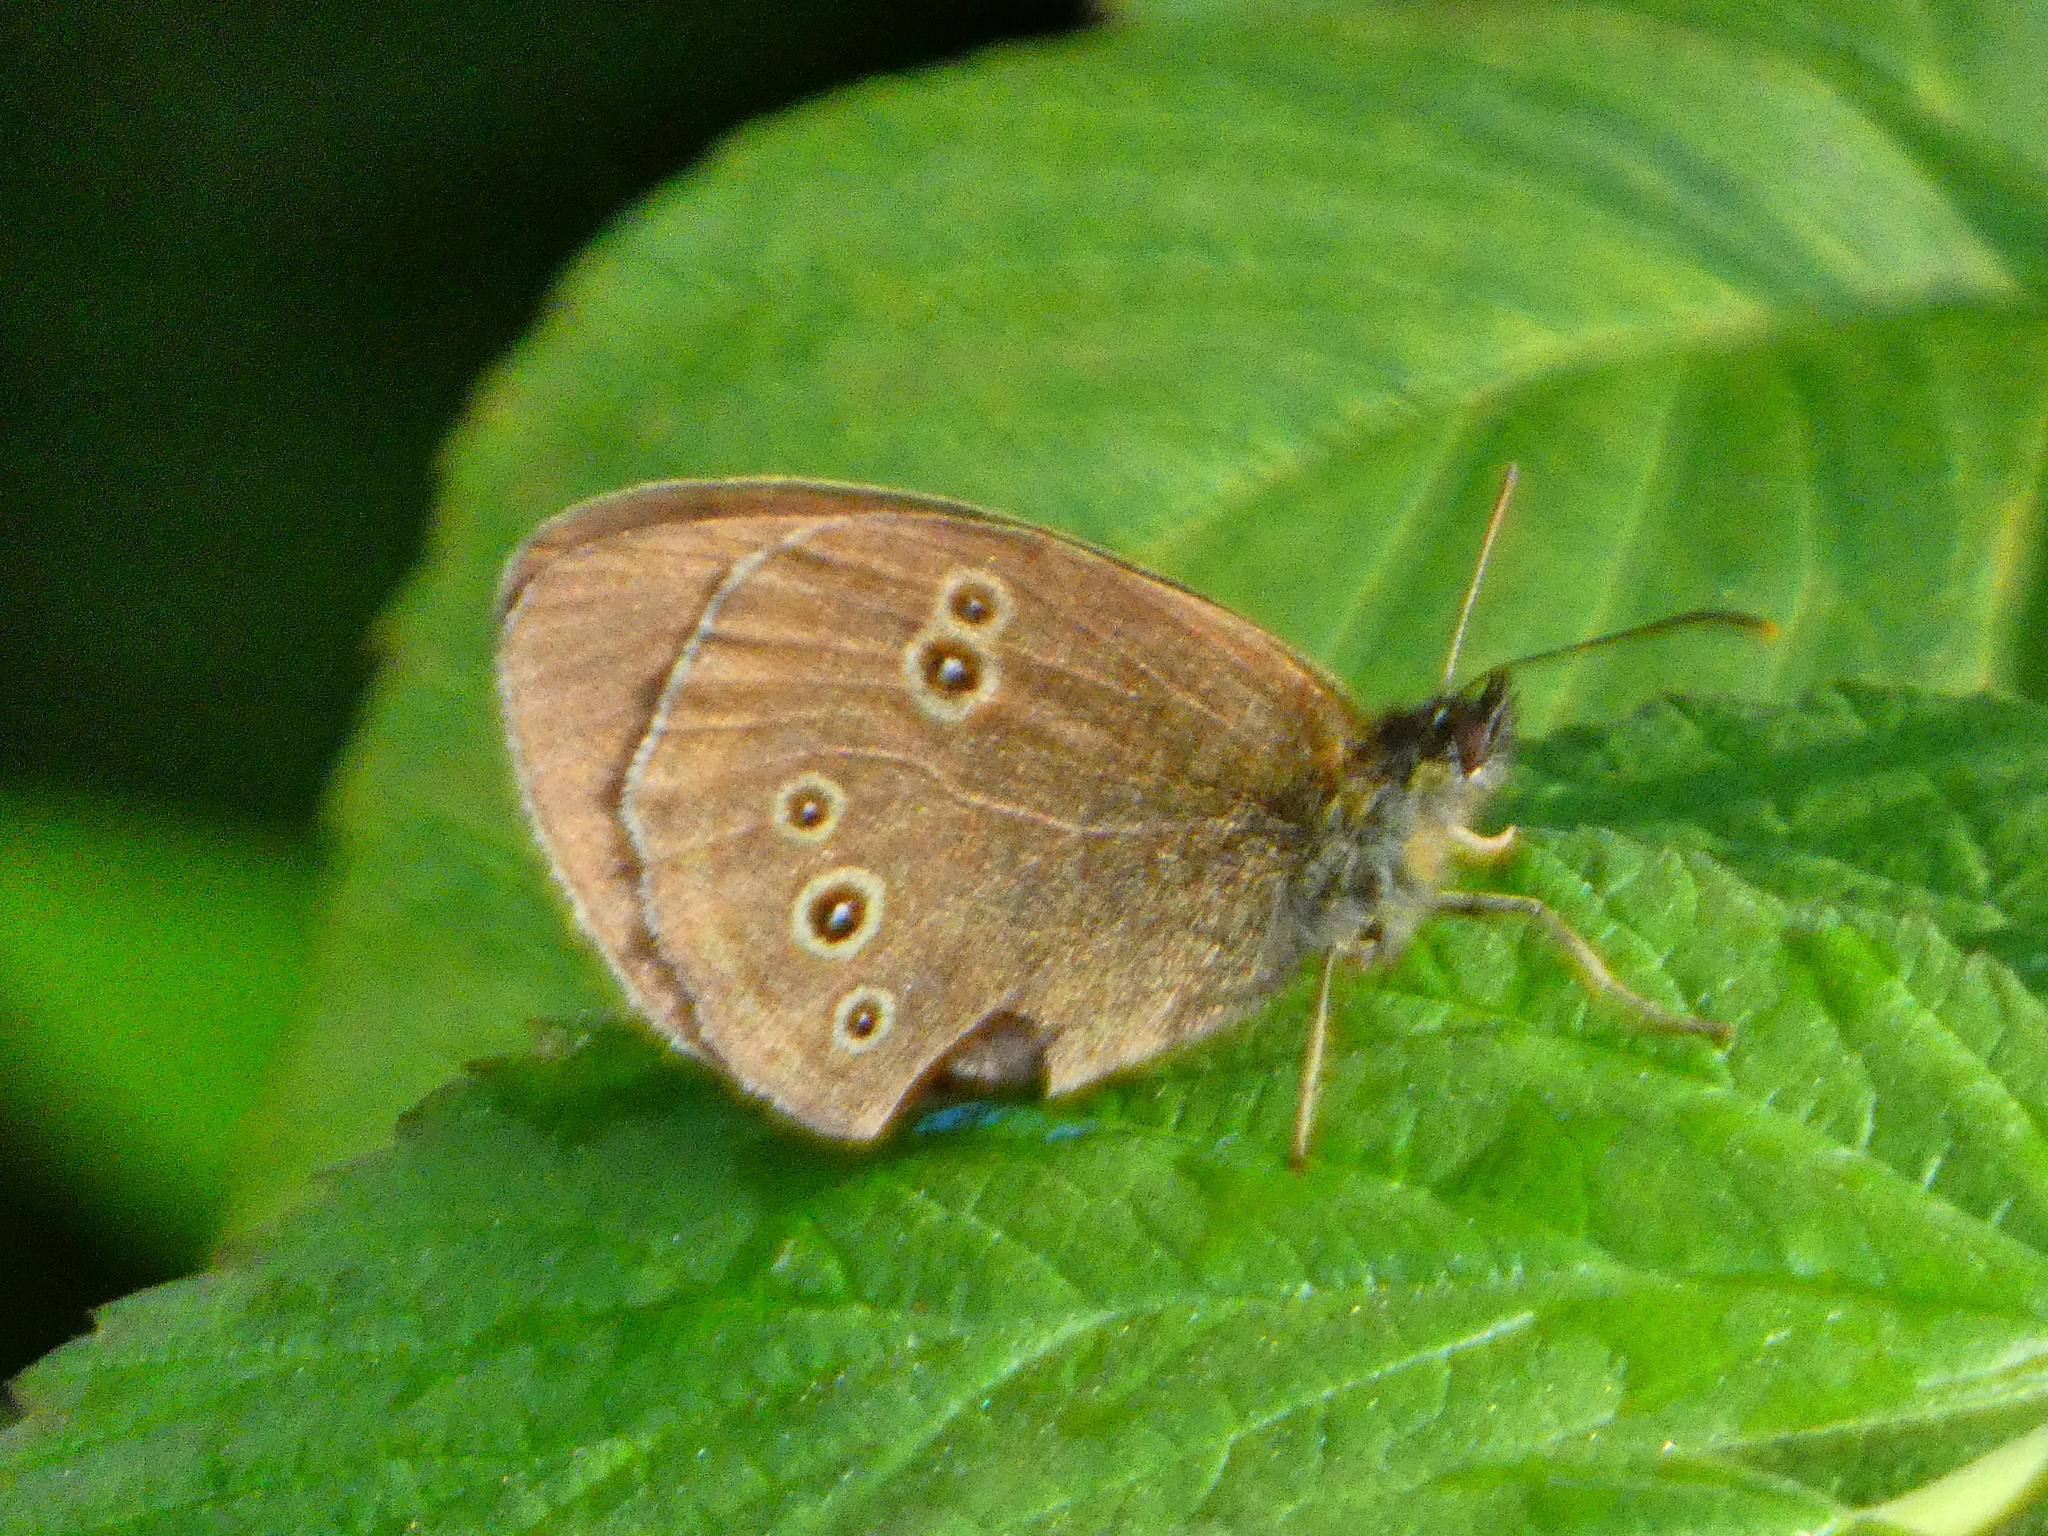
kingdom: Animalia
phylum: Arthropoda
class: Insecta
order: Lepidoptera
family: Nymphalidae
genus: Aphantopus
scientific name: Aphantopus hyperantus
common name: Ringlet
